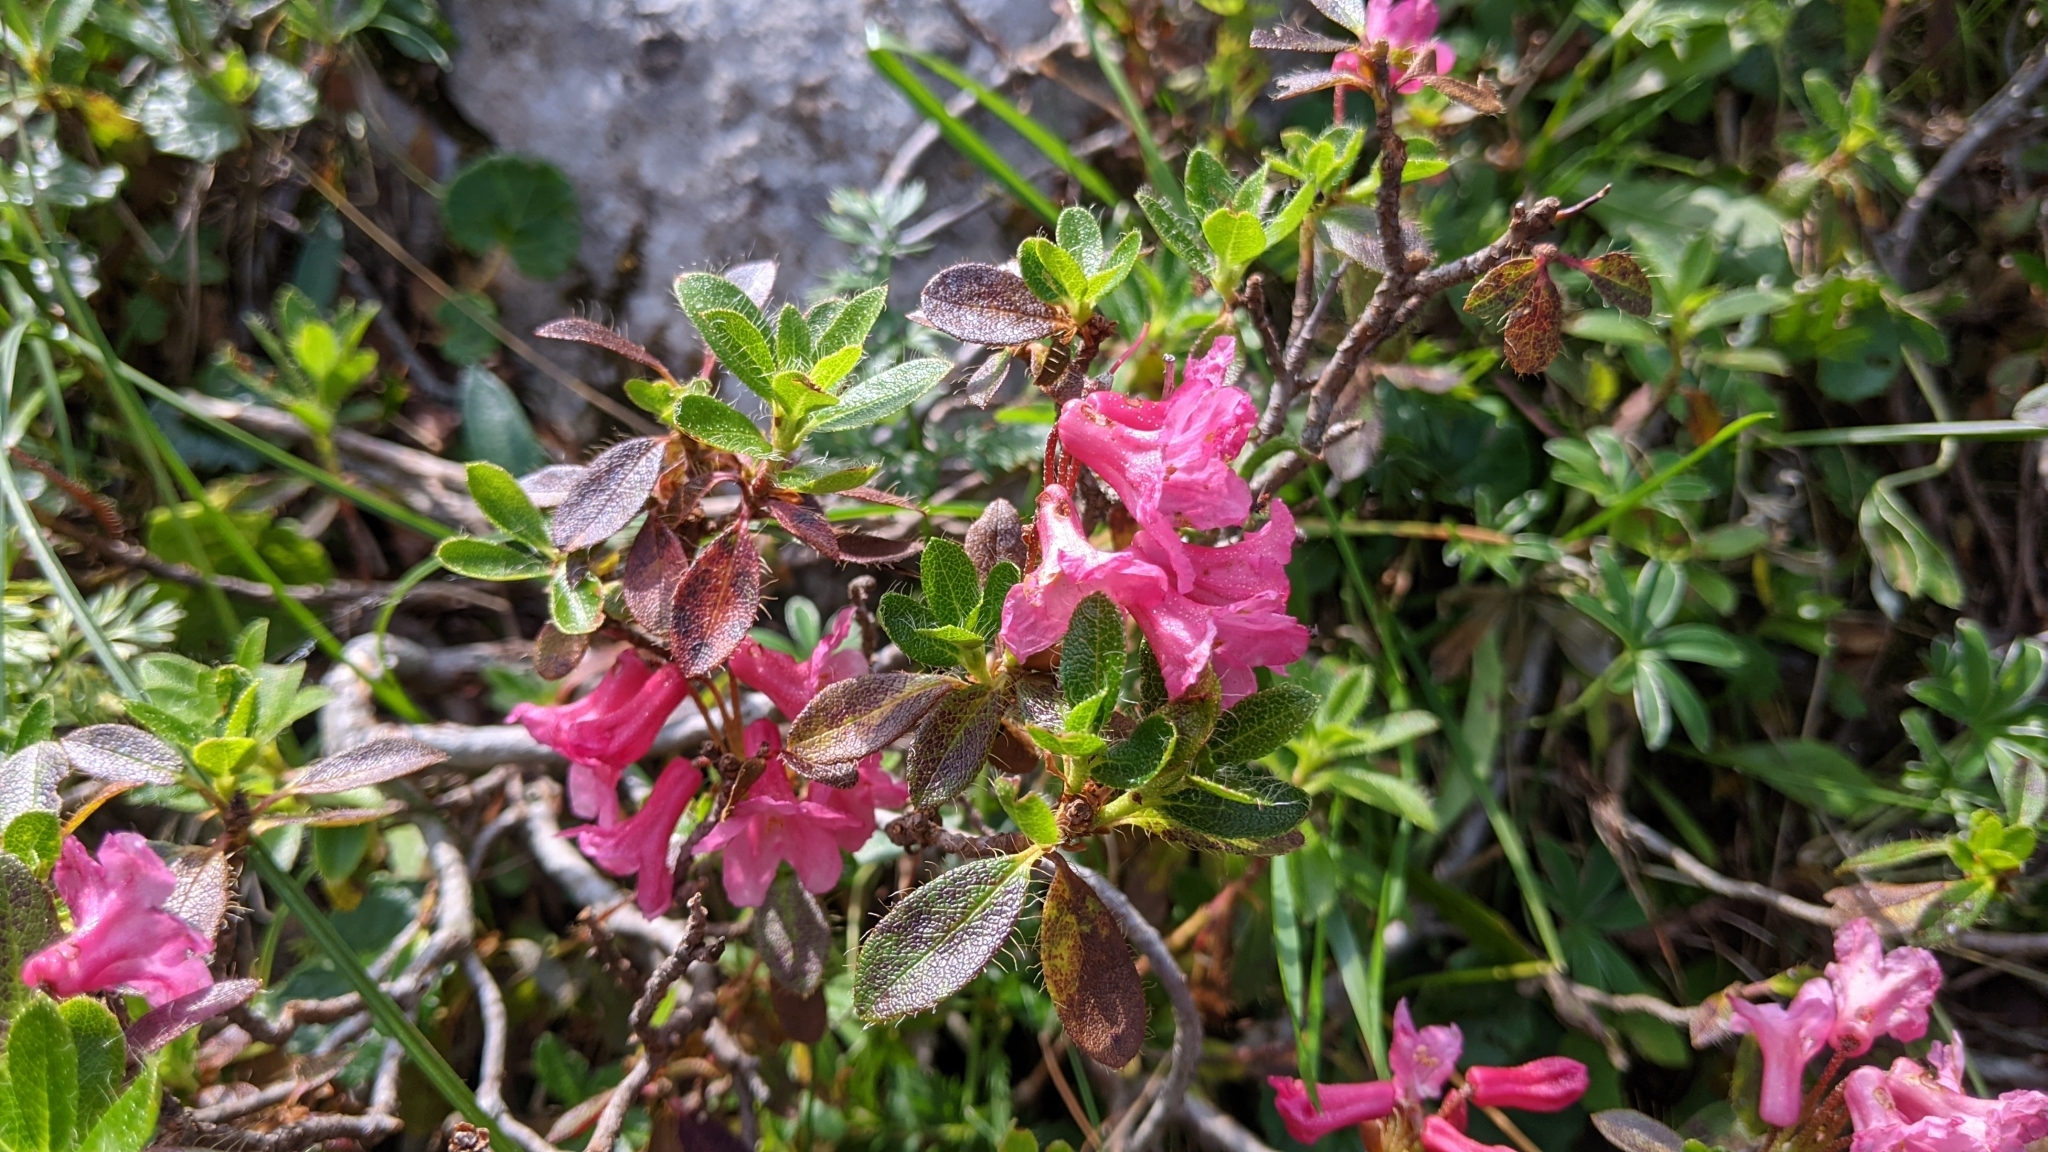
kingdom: Plantae
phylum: Tracheophyta
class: Magnoliopsida
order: Ericales
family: Ericaceae
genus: Rhododendron
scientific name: Rhododendron hirsutum
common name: Hairy alpenrose
